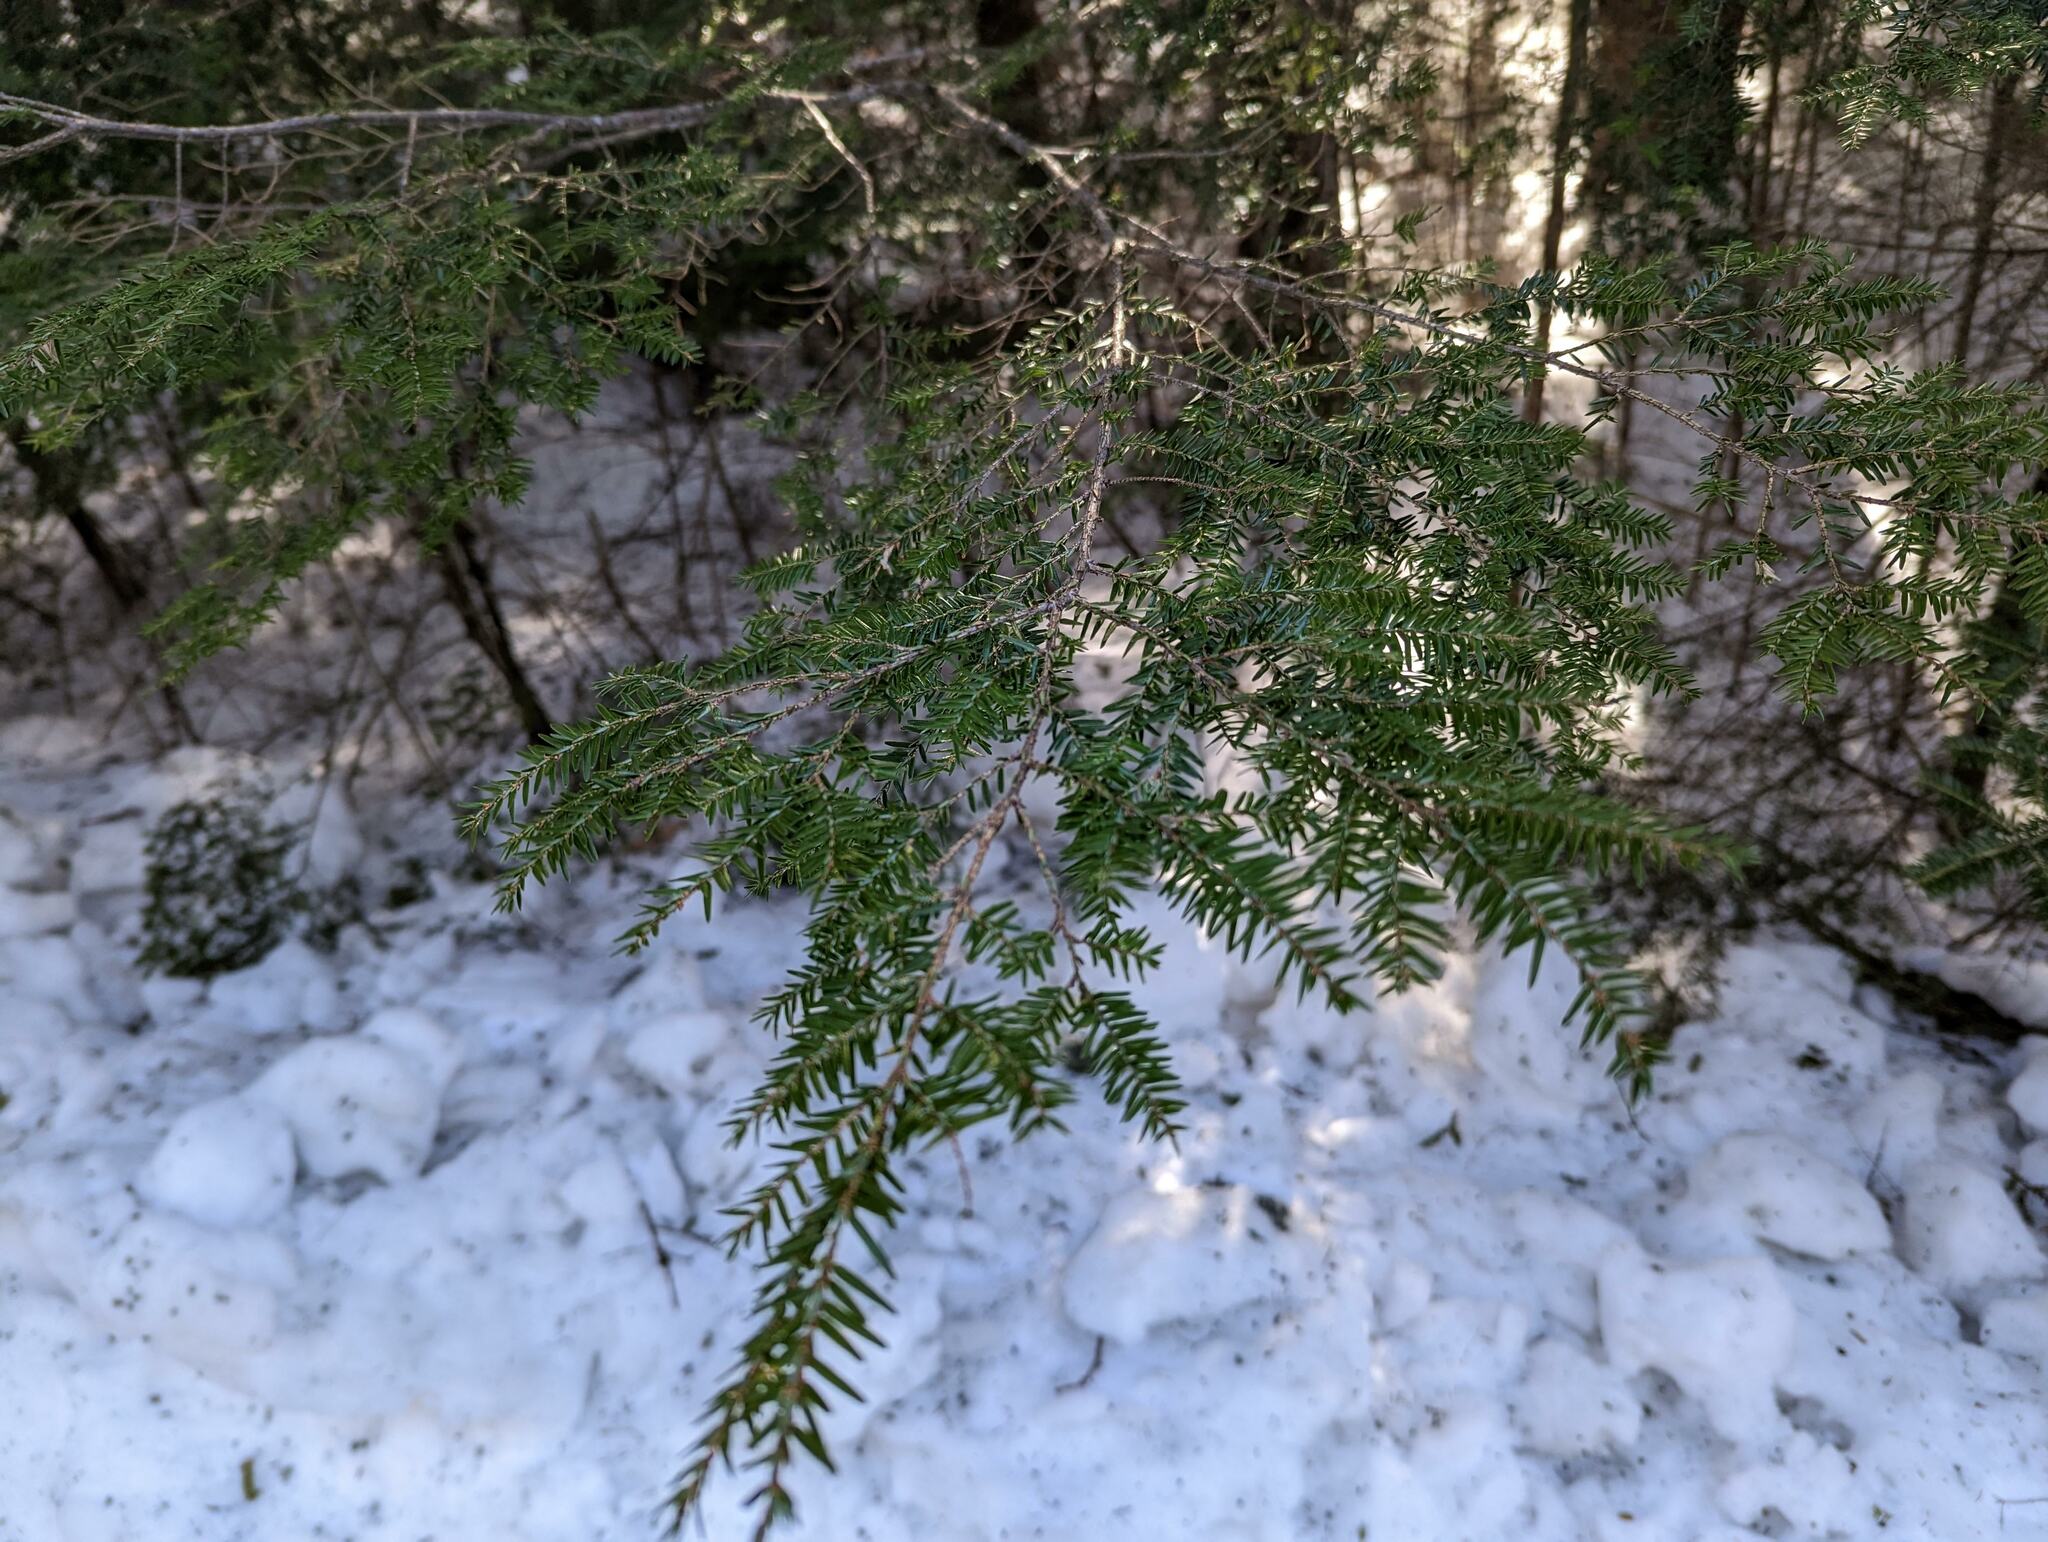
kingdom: Plantae
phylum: Tracheophyta
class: Pinopsida
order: Pinales
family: Pinaceae
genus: Tsuga
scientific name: Tsuga canadensis
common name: Eastern hemlock
